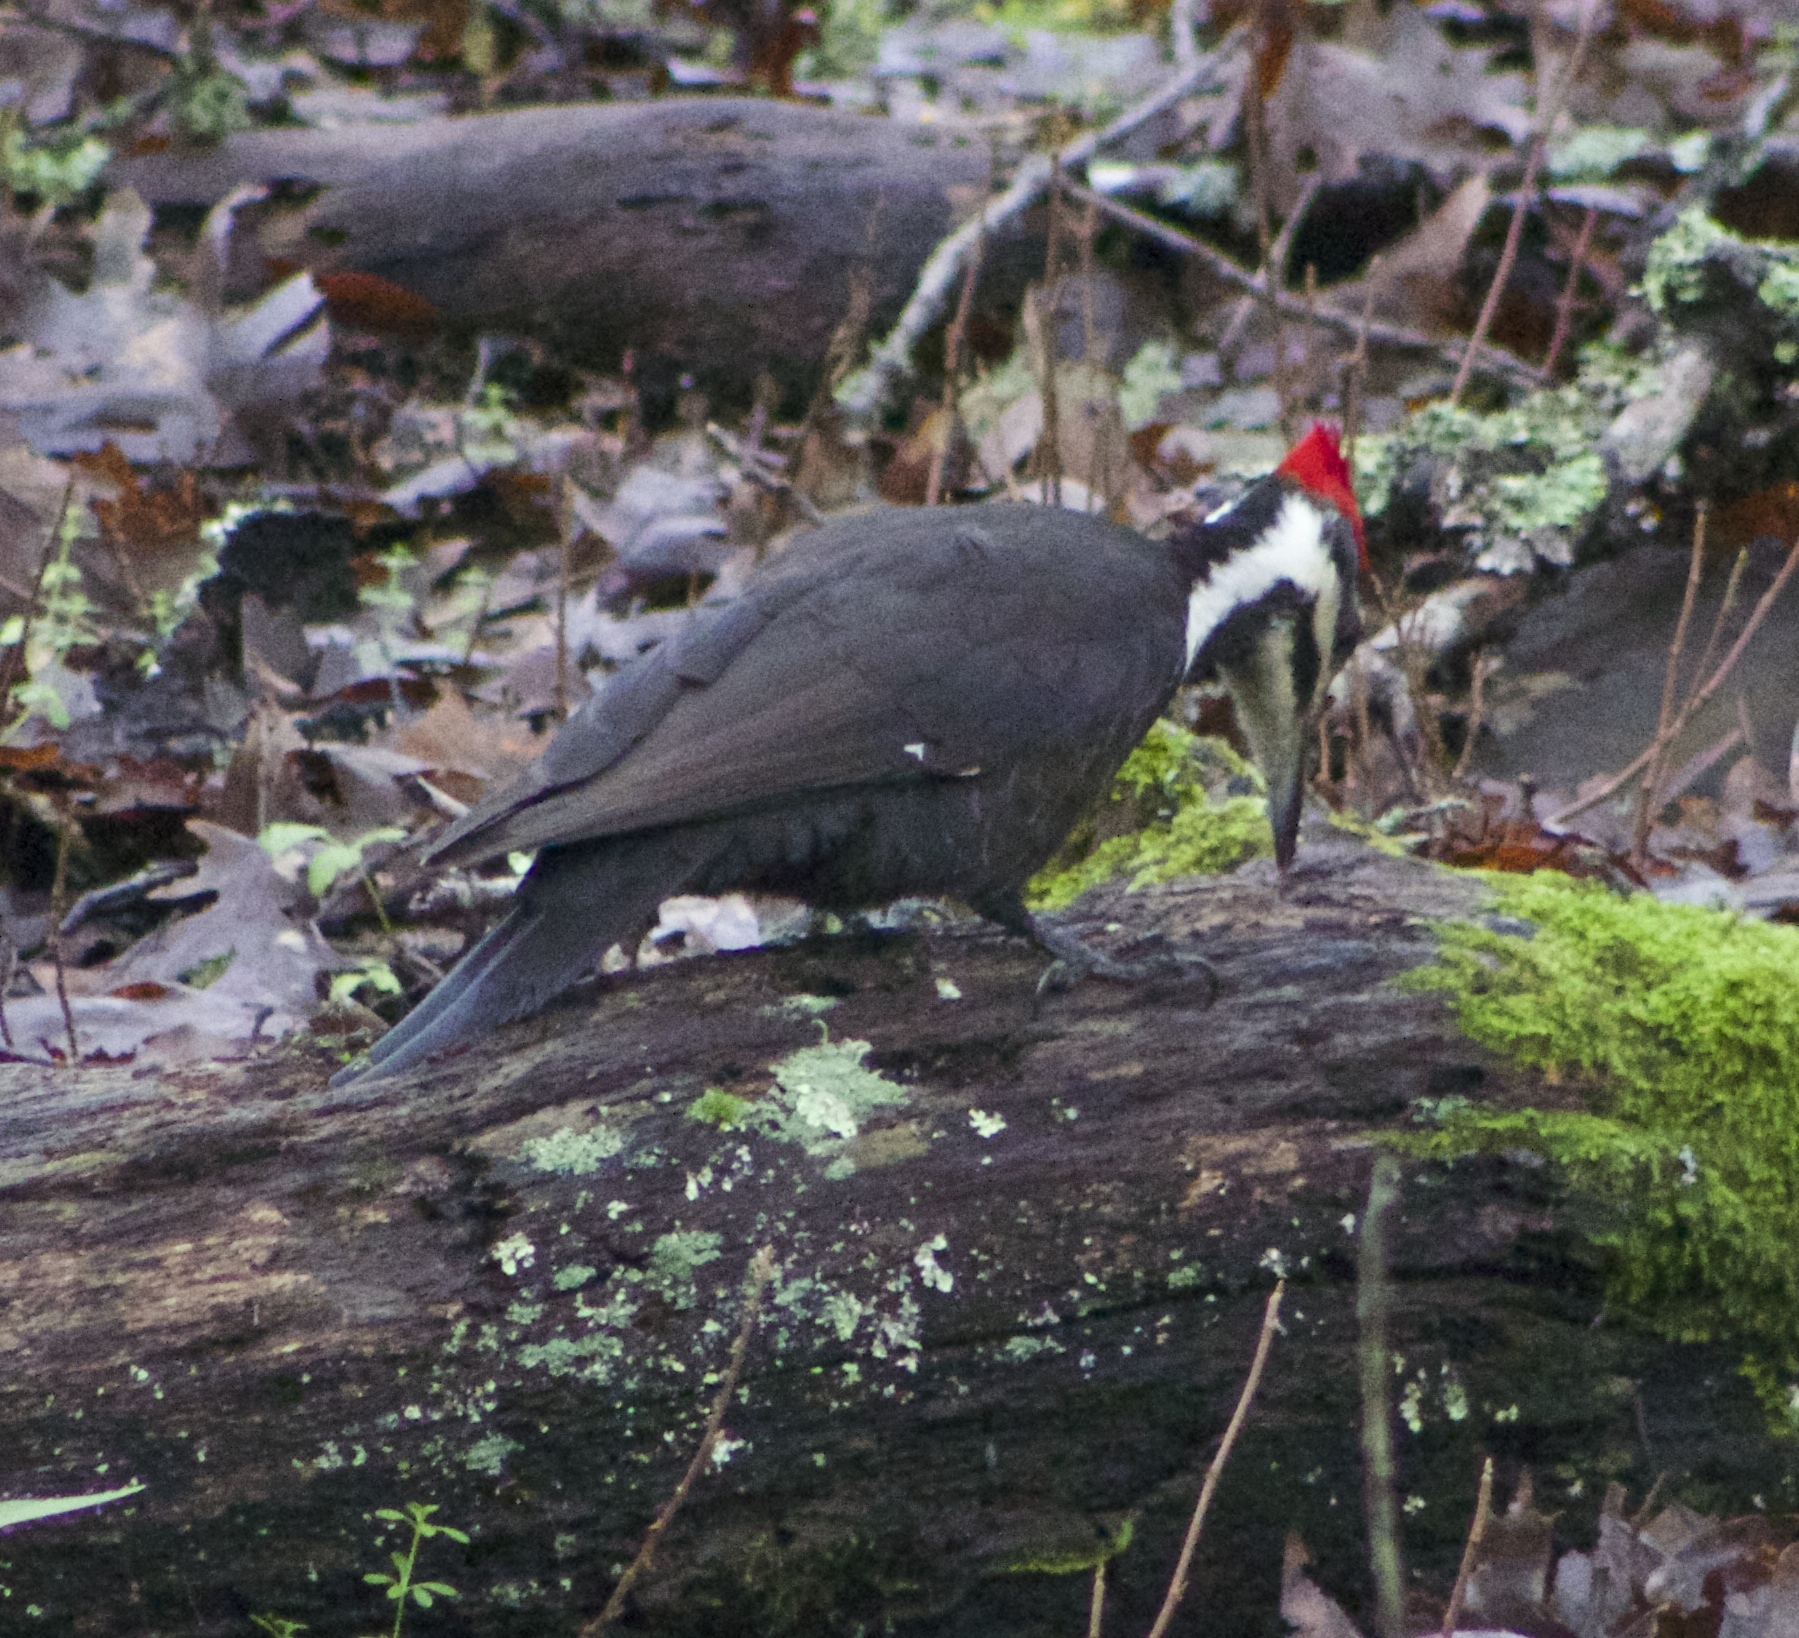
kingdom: Animalia
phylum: Chordata
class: Aves
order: Piciformes
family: Picidae
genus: Dryocopus
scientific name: Dryocopus pileatus
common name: Pileated woodpecker
